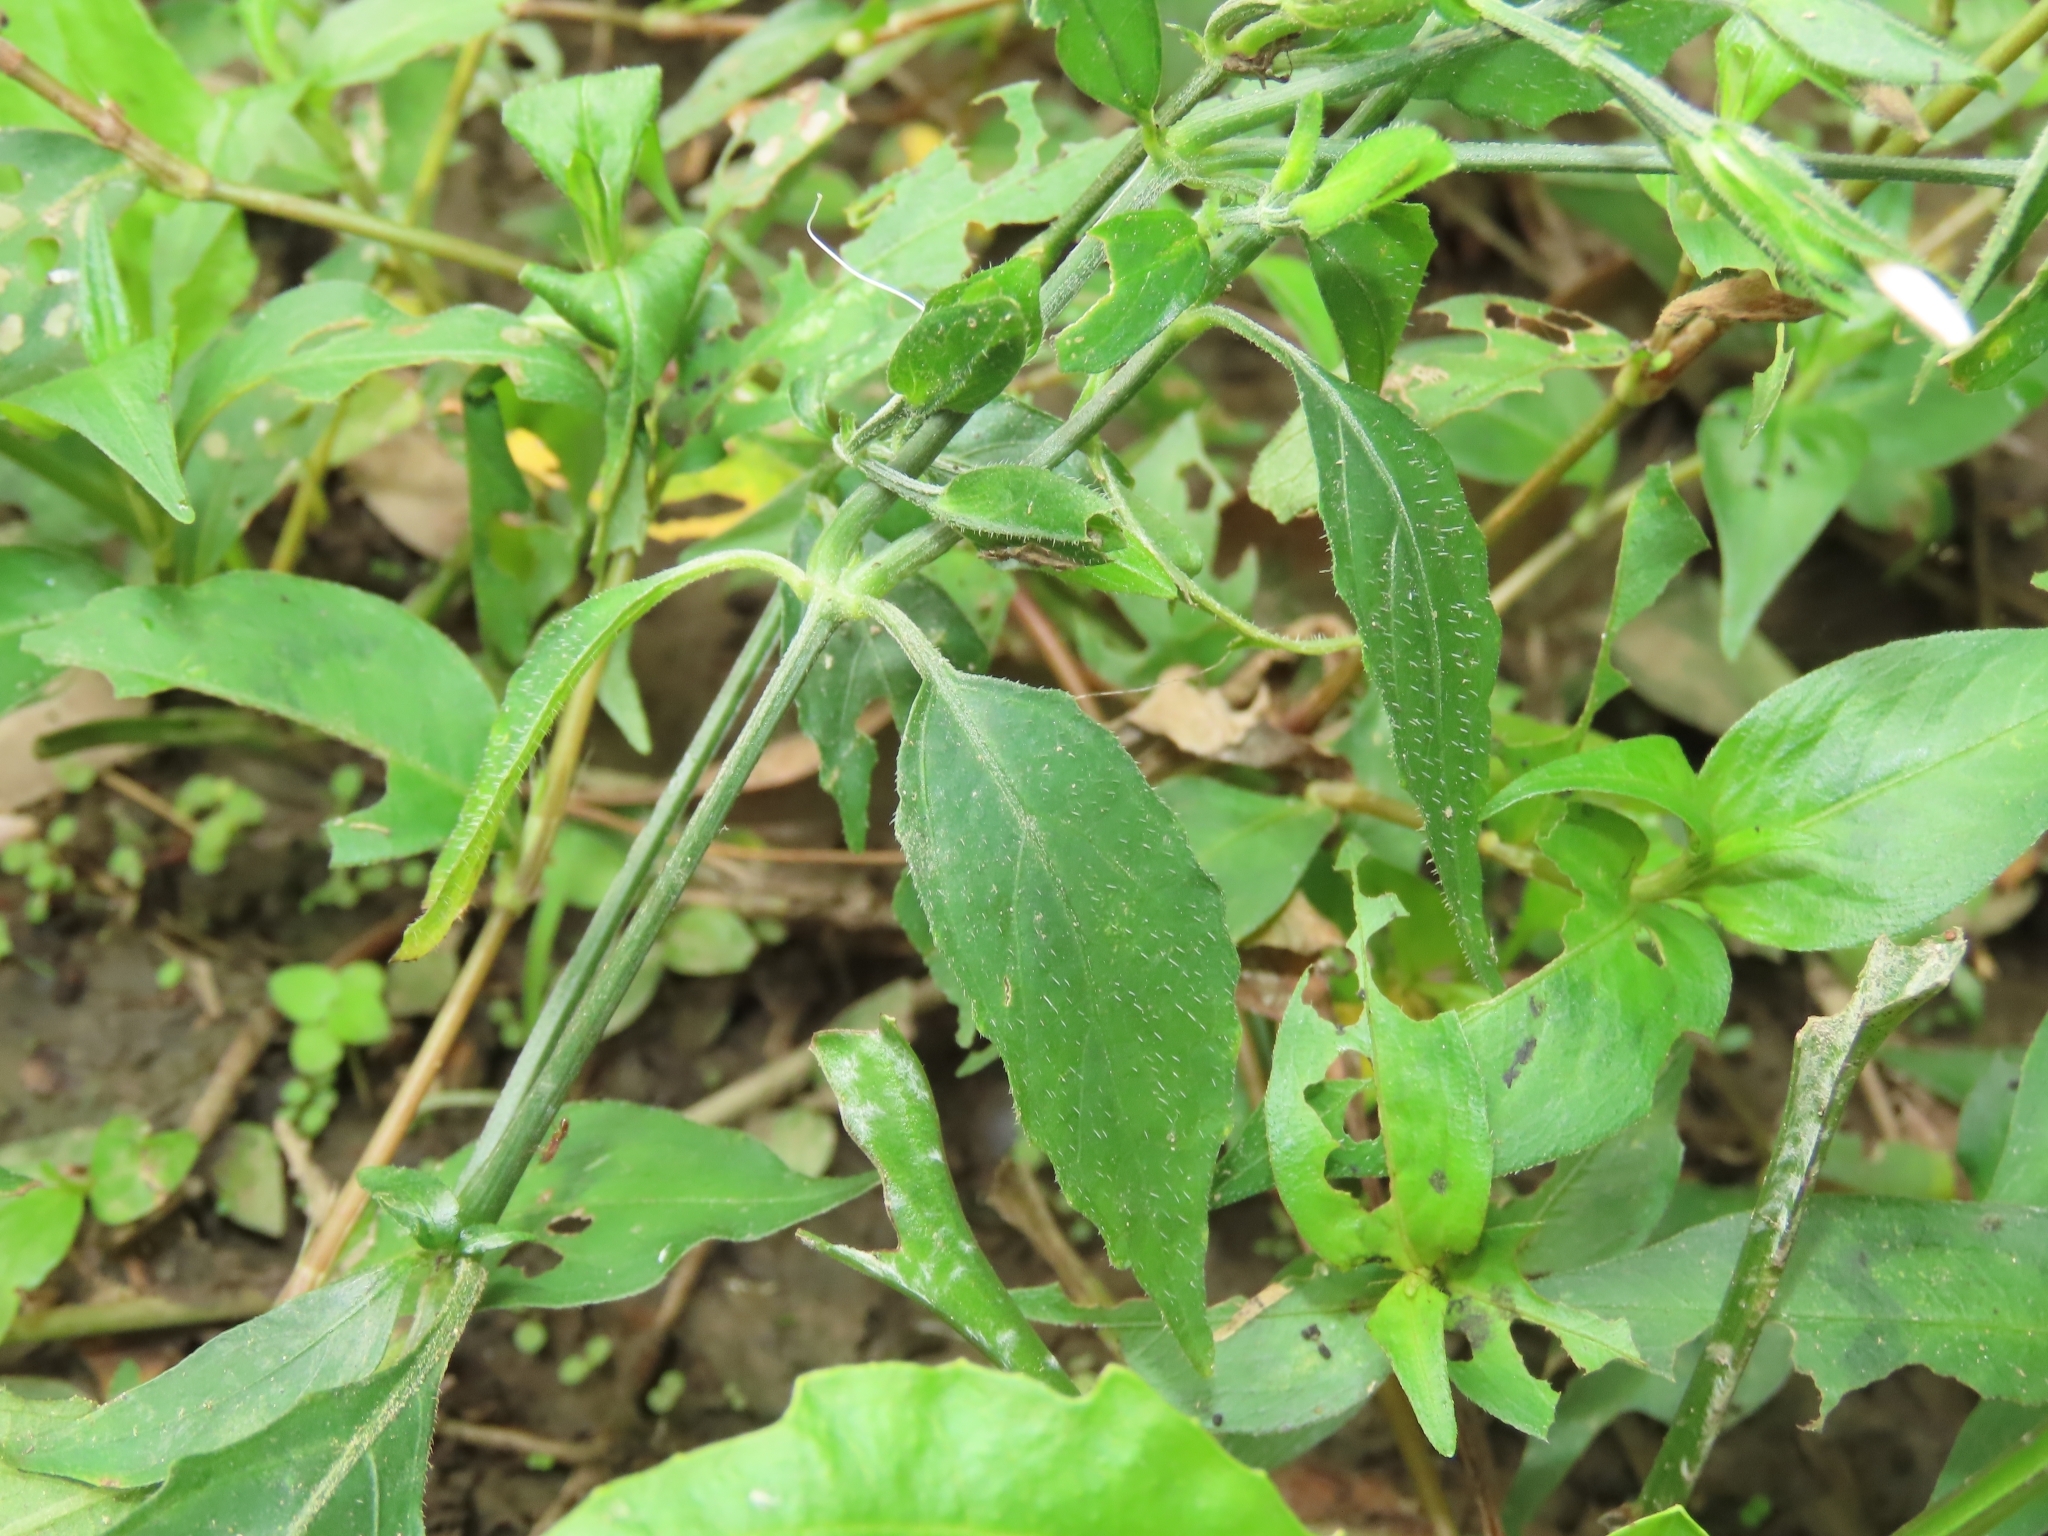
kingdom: Plantae
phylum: Tracheophyta
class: Magnoliopsida
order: Lamiales
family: Acanthaceae
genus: Dicliptera
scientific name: Dicliptera japonica
